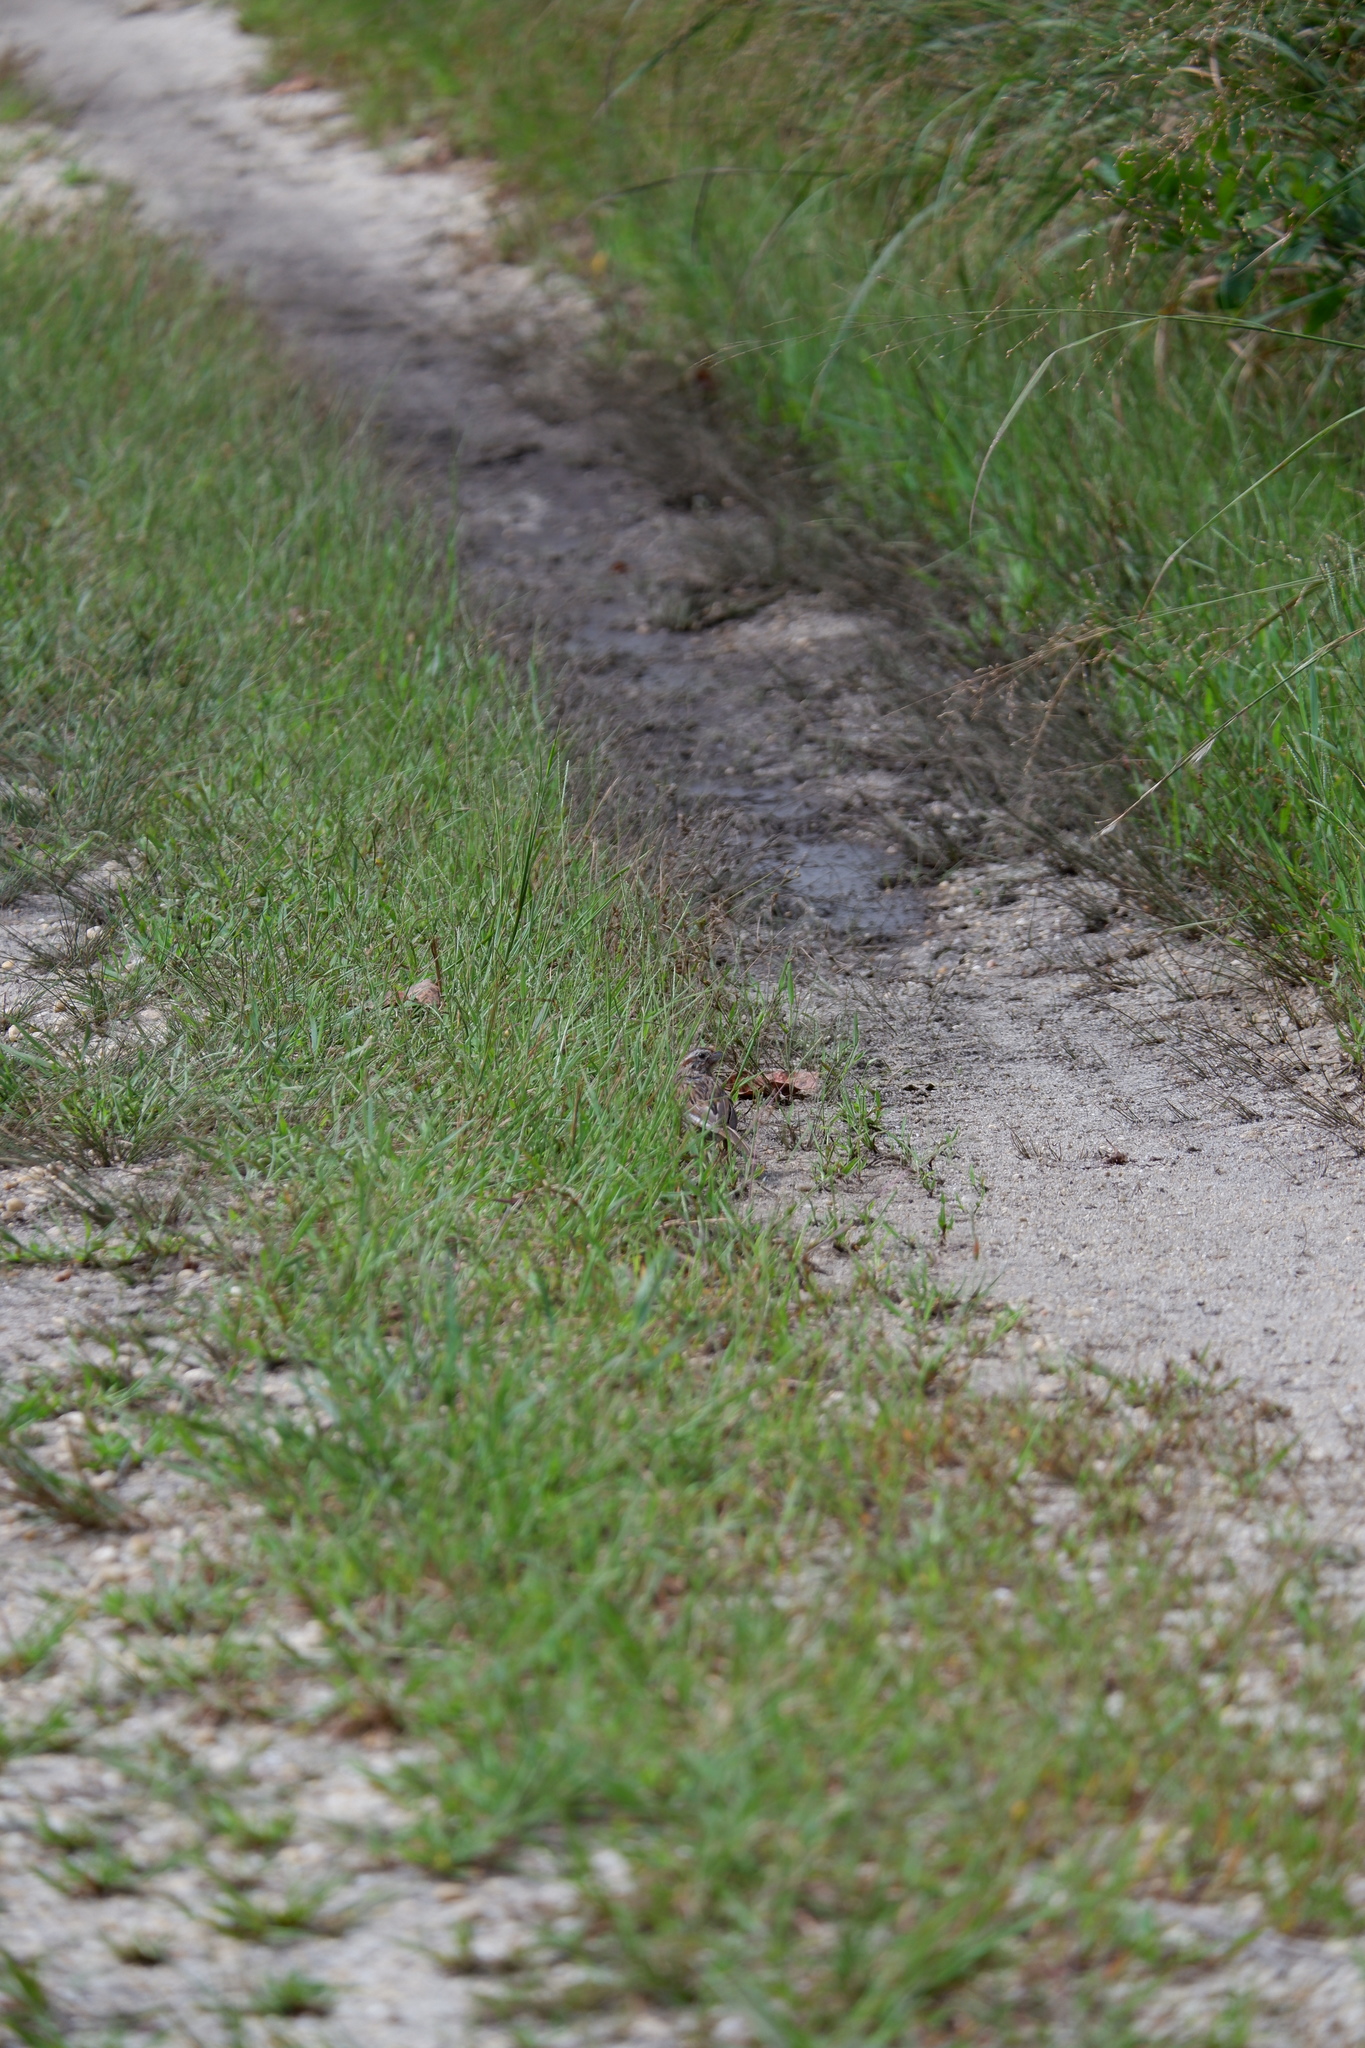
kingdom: Animalia
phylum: Chordata
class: Aves
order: Passeriformes
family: Passerellidae
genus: Melospiza
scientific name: Melospiza melodia
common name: Song sparrow
